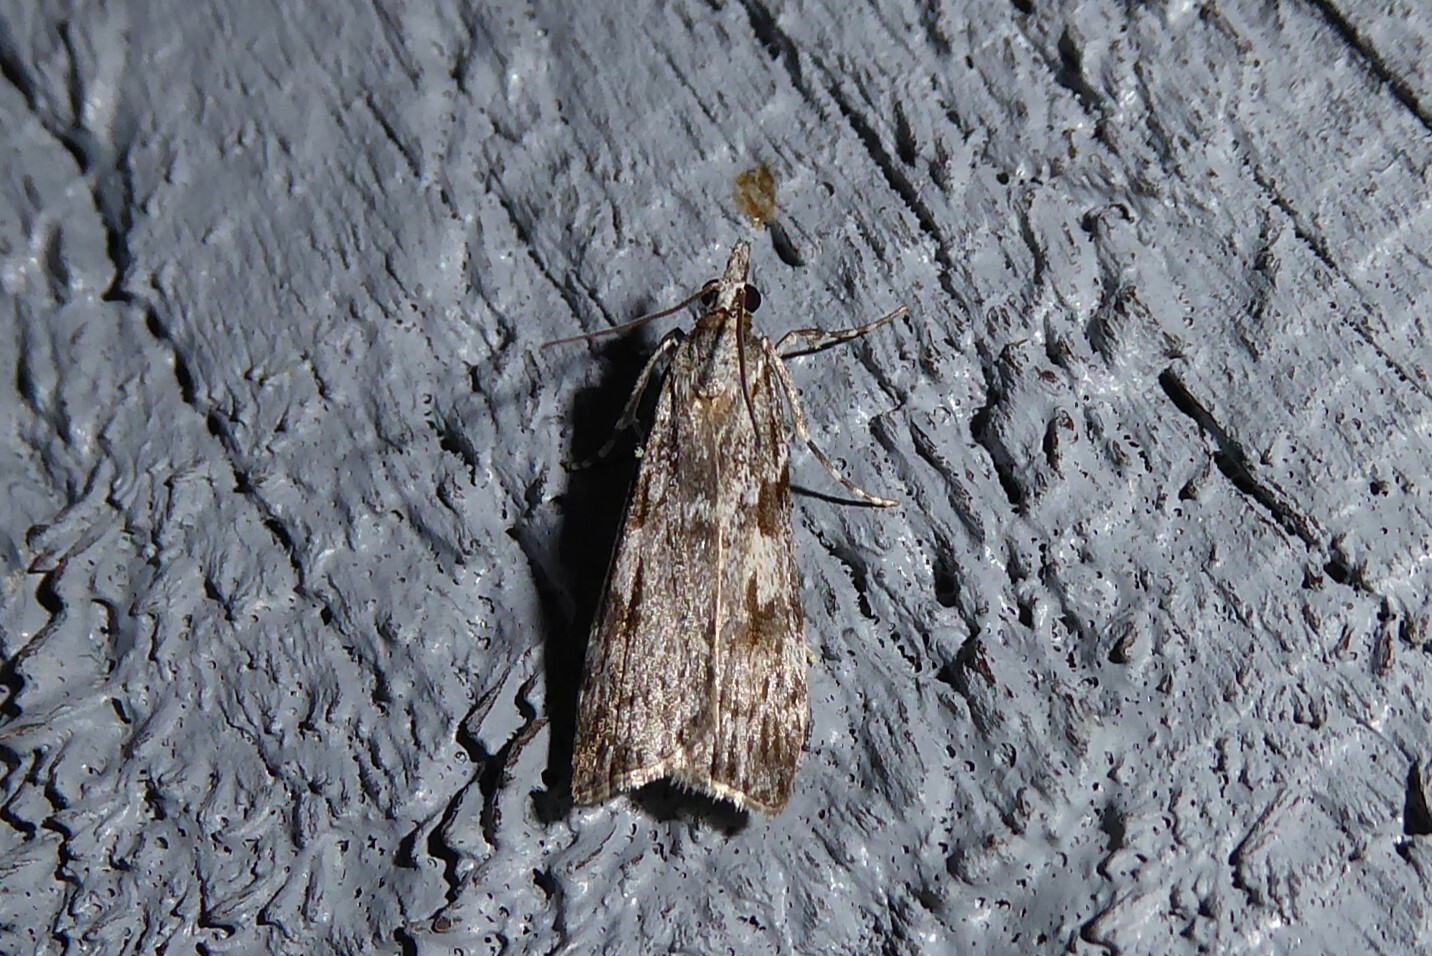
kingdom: Animalia
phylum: Arthropoda
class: Insecta
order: Lepidoptera
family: Crambidae
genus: Scoparia
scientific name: Scoparia halopis
